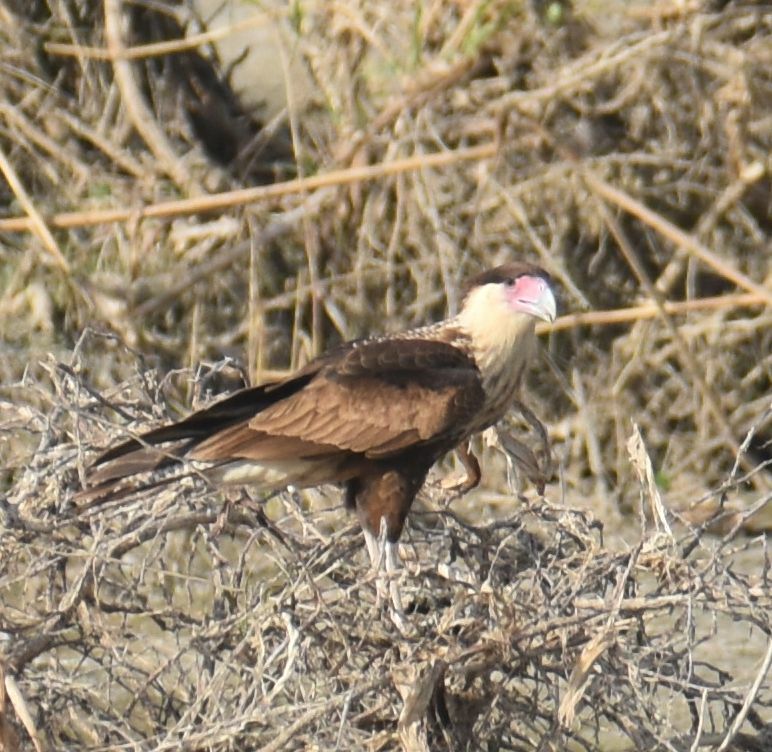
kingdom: Animalia
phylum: Chordata
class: Aves
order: Falconiformes
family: Falconidae
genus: Caracara
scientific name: Caracara plancus
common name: Southern caracara
